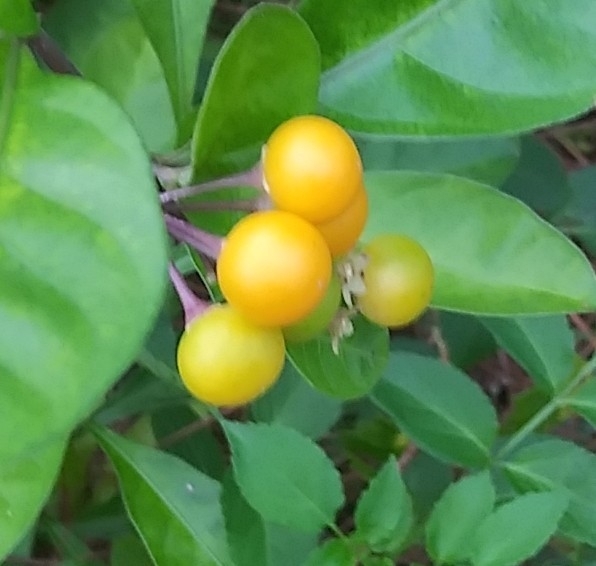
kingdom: Plantae
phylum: Tracheophyta
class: Magnoliopsida
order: Solanales
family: Solanaceae
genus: Solanum
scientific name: Solanum diphyllum
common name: Twoleaf nightshade
